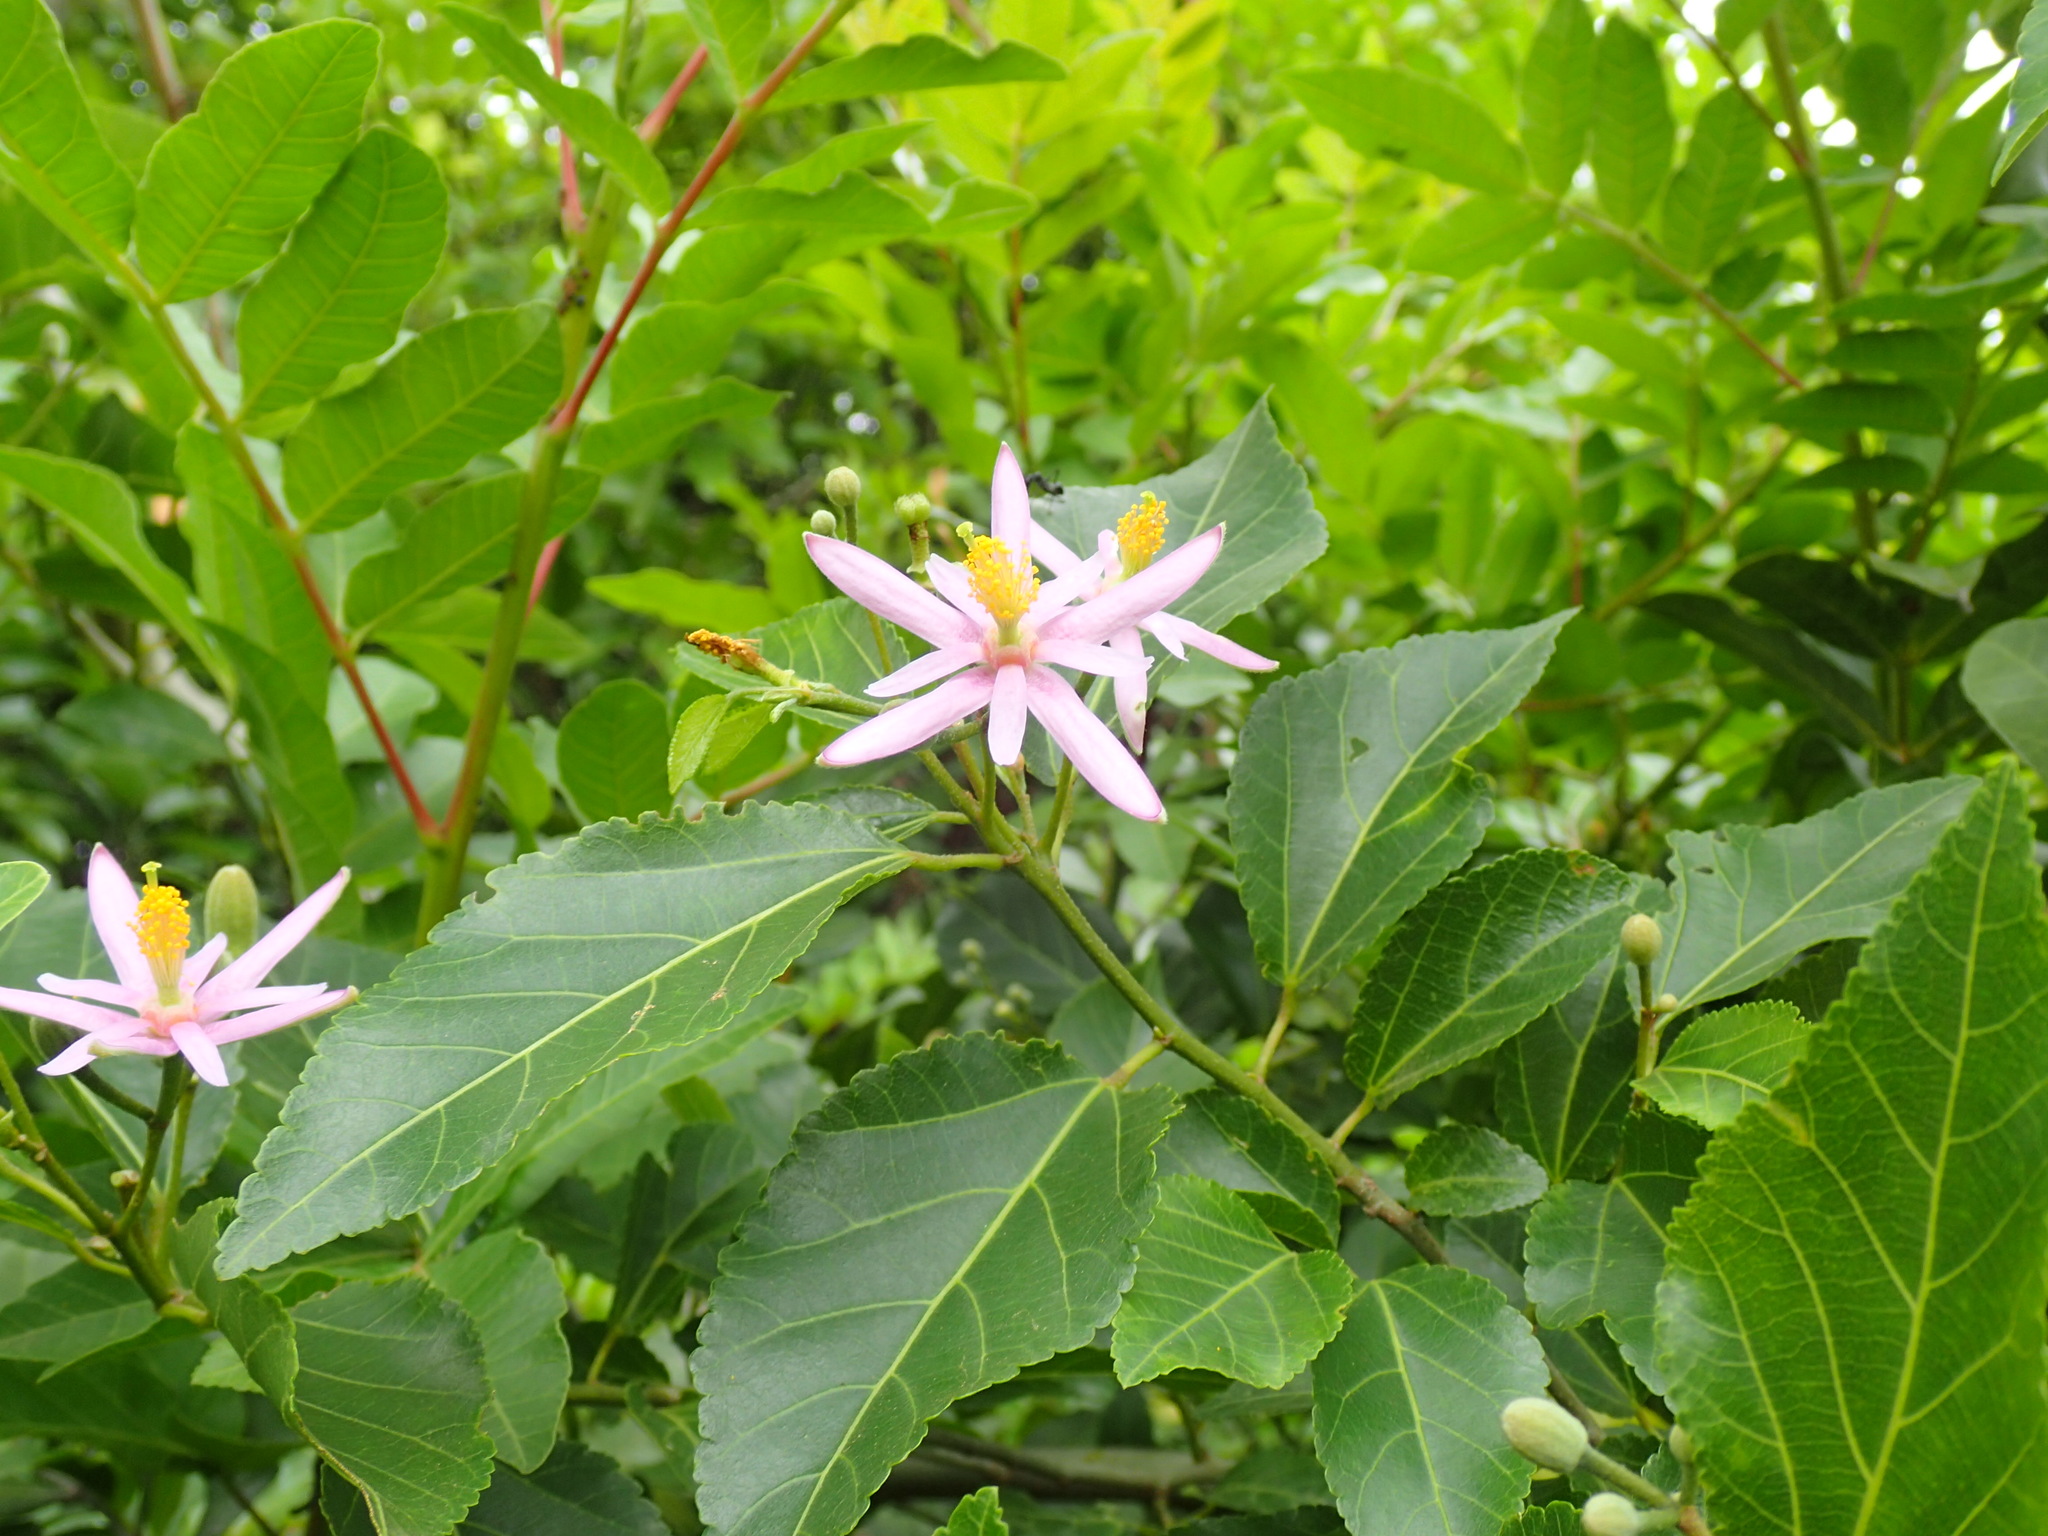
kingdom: Plantae
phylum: Tracheophyta
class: Magnoliopsida
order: Malvales
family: Malvaceae
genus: Grewia
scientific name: Grewia occidentalis
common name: Crossberry
